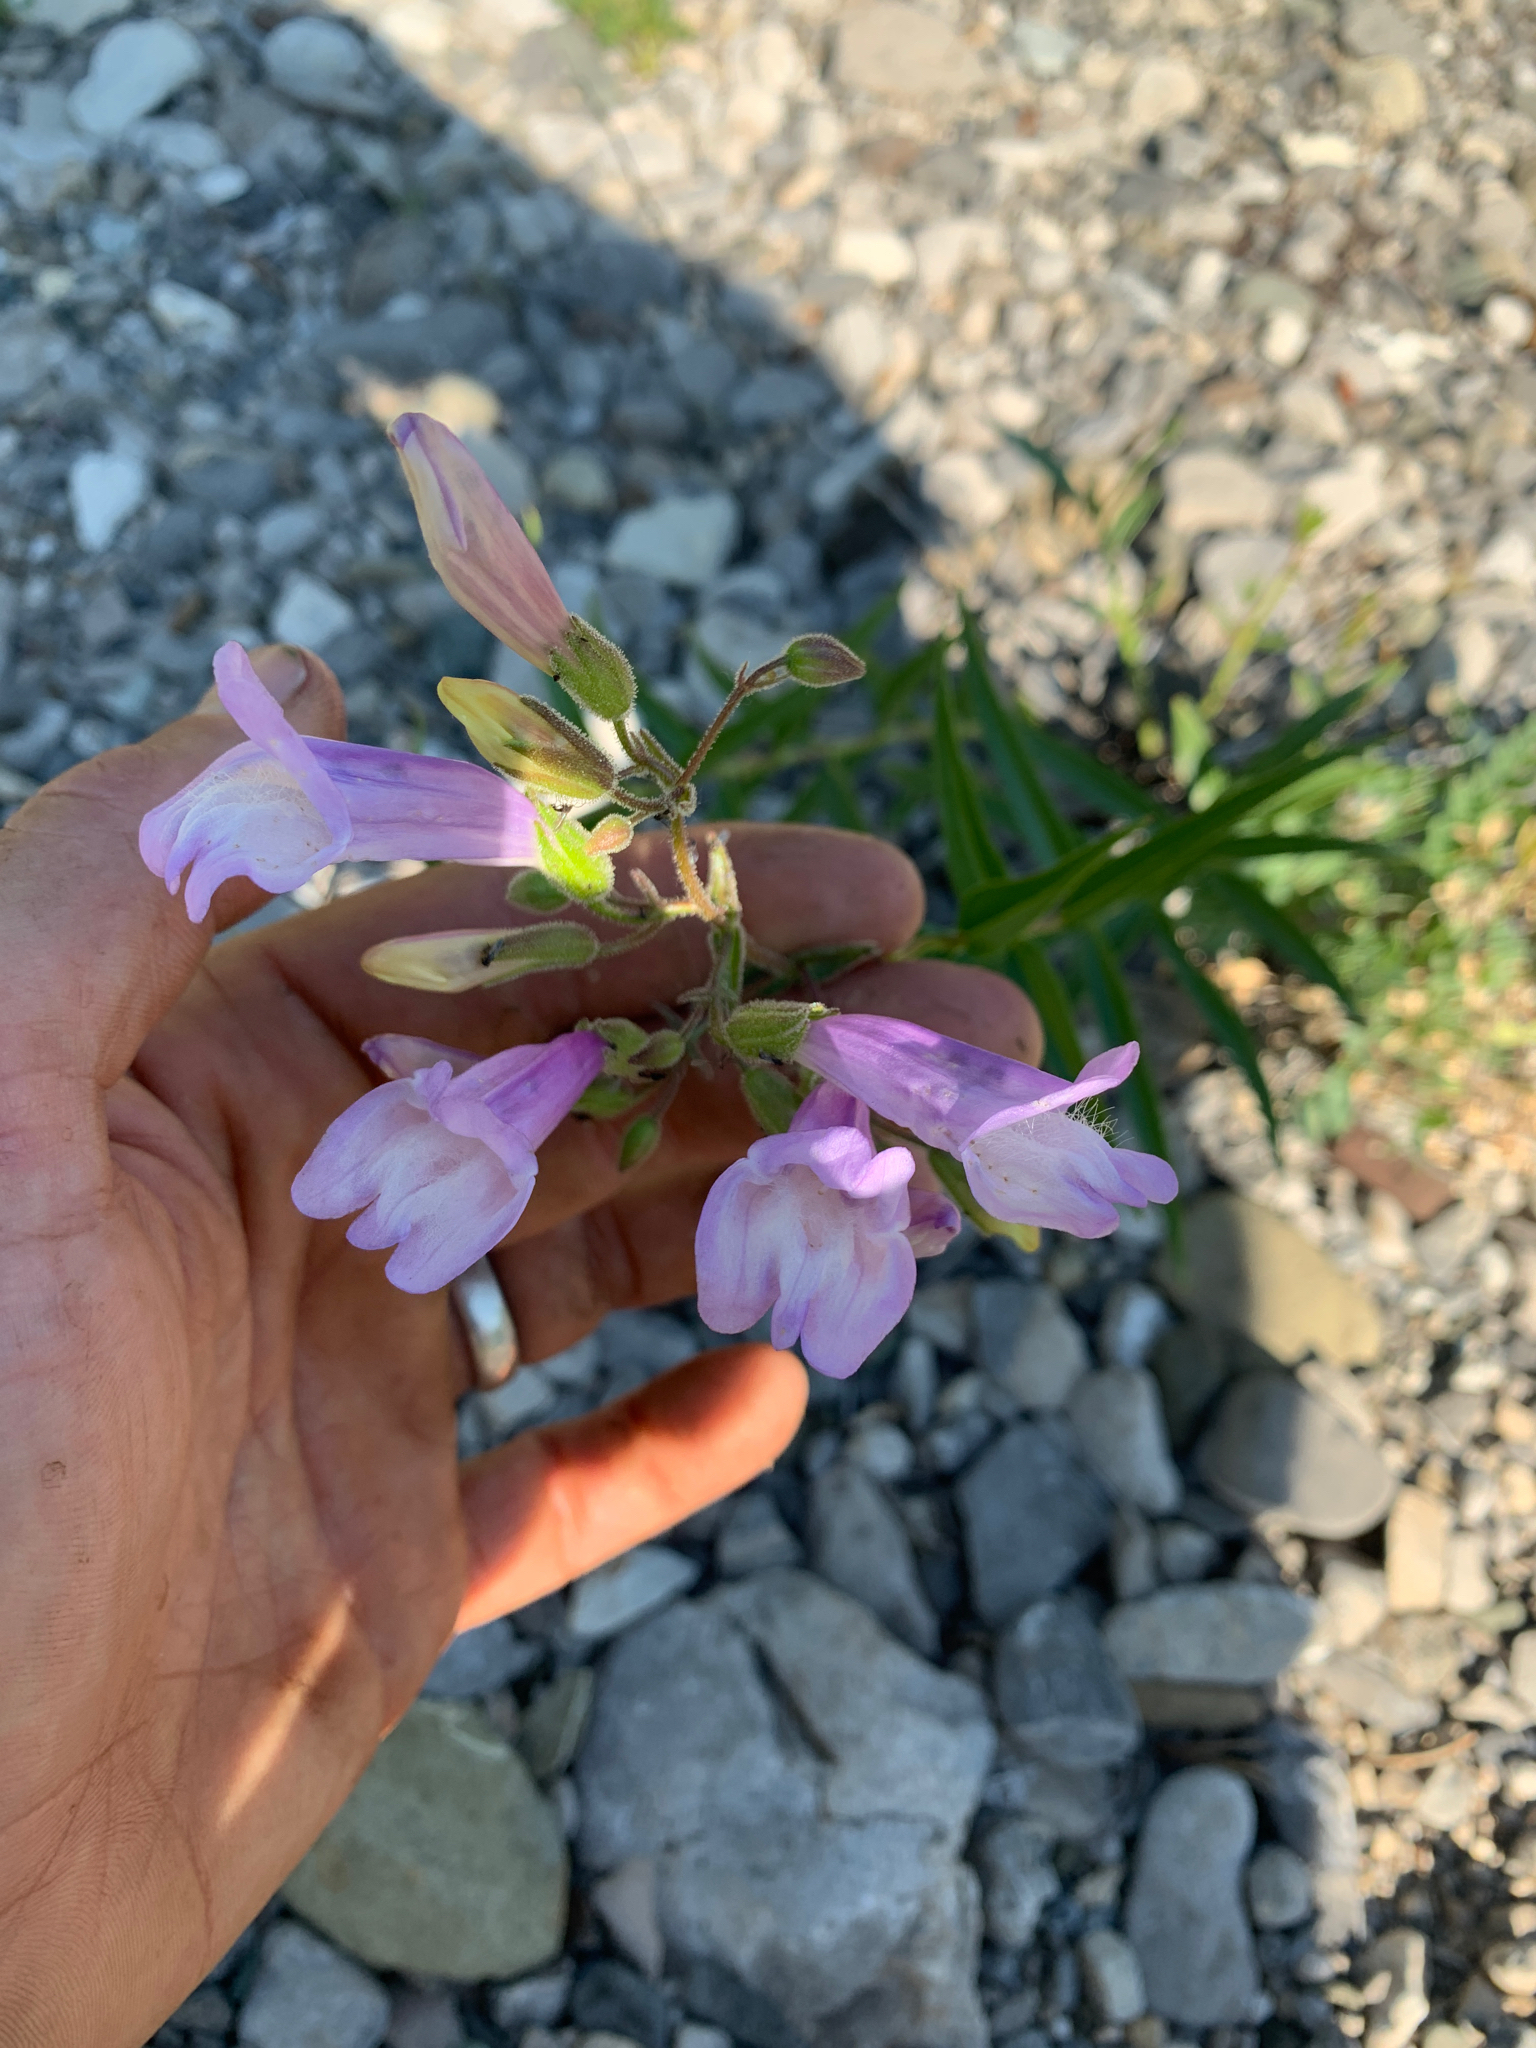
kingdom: Plantae
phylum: Tracheophyta
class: Magnoliopsida
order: Lamiales
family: Plantaginaceae
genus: Penstemon
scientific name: Penstemon lyalli
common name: Lyall's beardtongue
